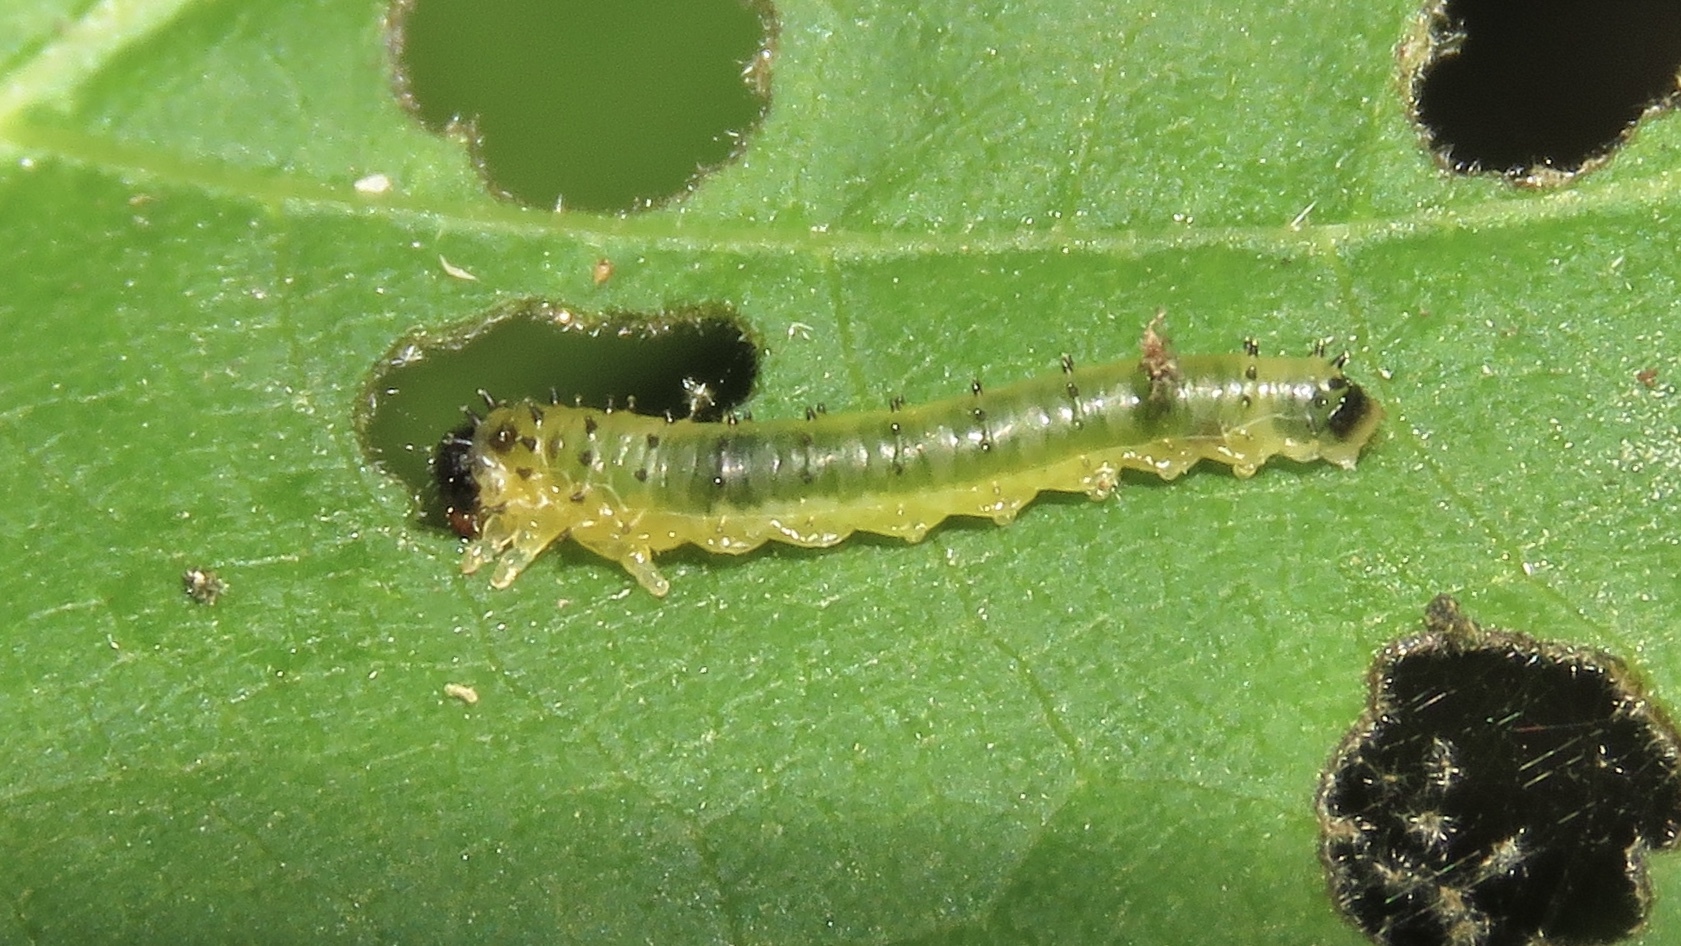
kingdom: Animalia
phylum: Arthropoda
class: Insecta
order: Hymenoptera
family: Argidae
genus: Atomacera
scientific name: Atomacera
